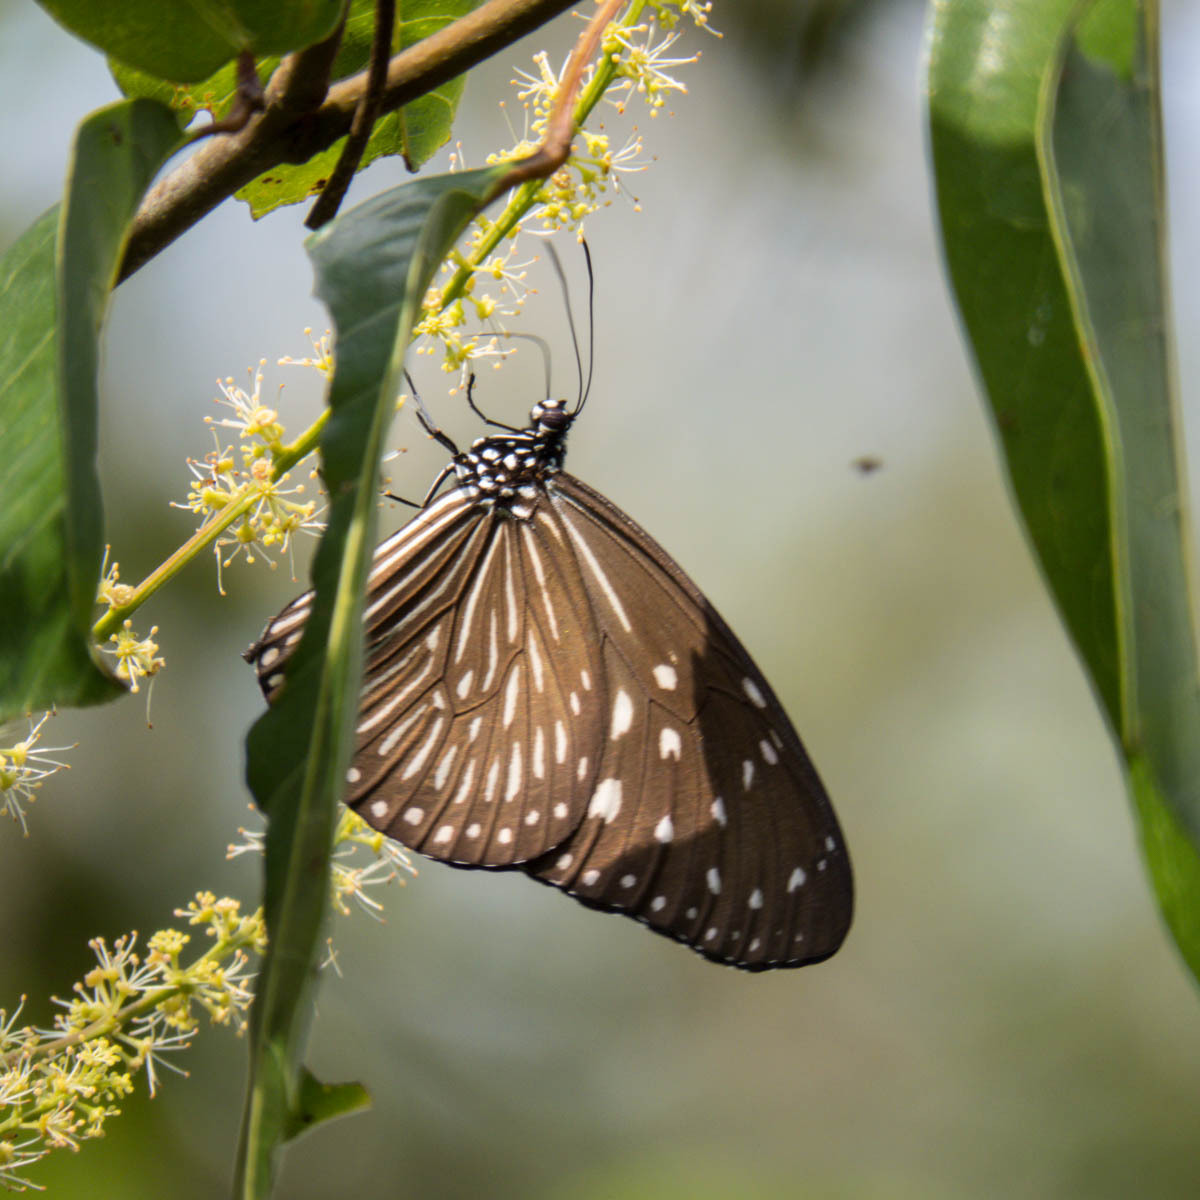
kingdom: Animalia
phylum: Arthropoda
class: Insecta
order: Lepidoptera
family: Nymphalidae
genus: Euploea
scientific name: Euploea mulciber
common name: Striped blue crow butterfly
